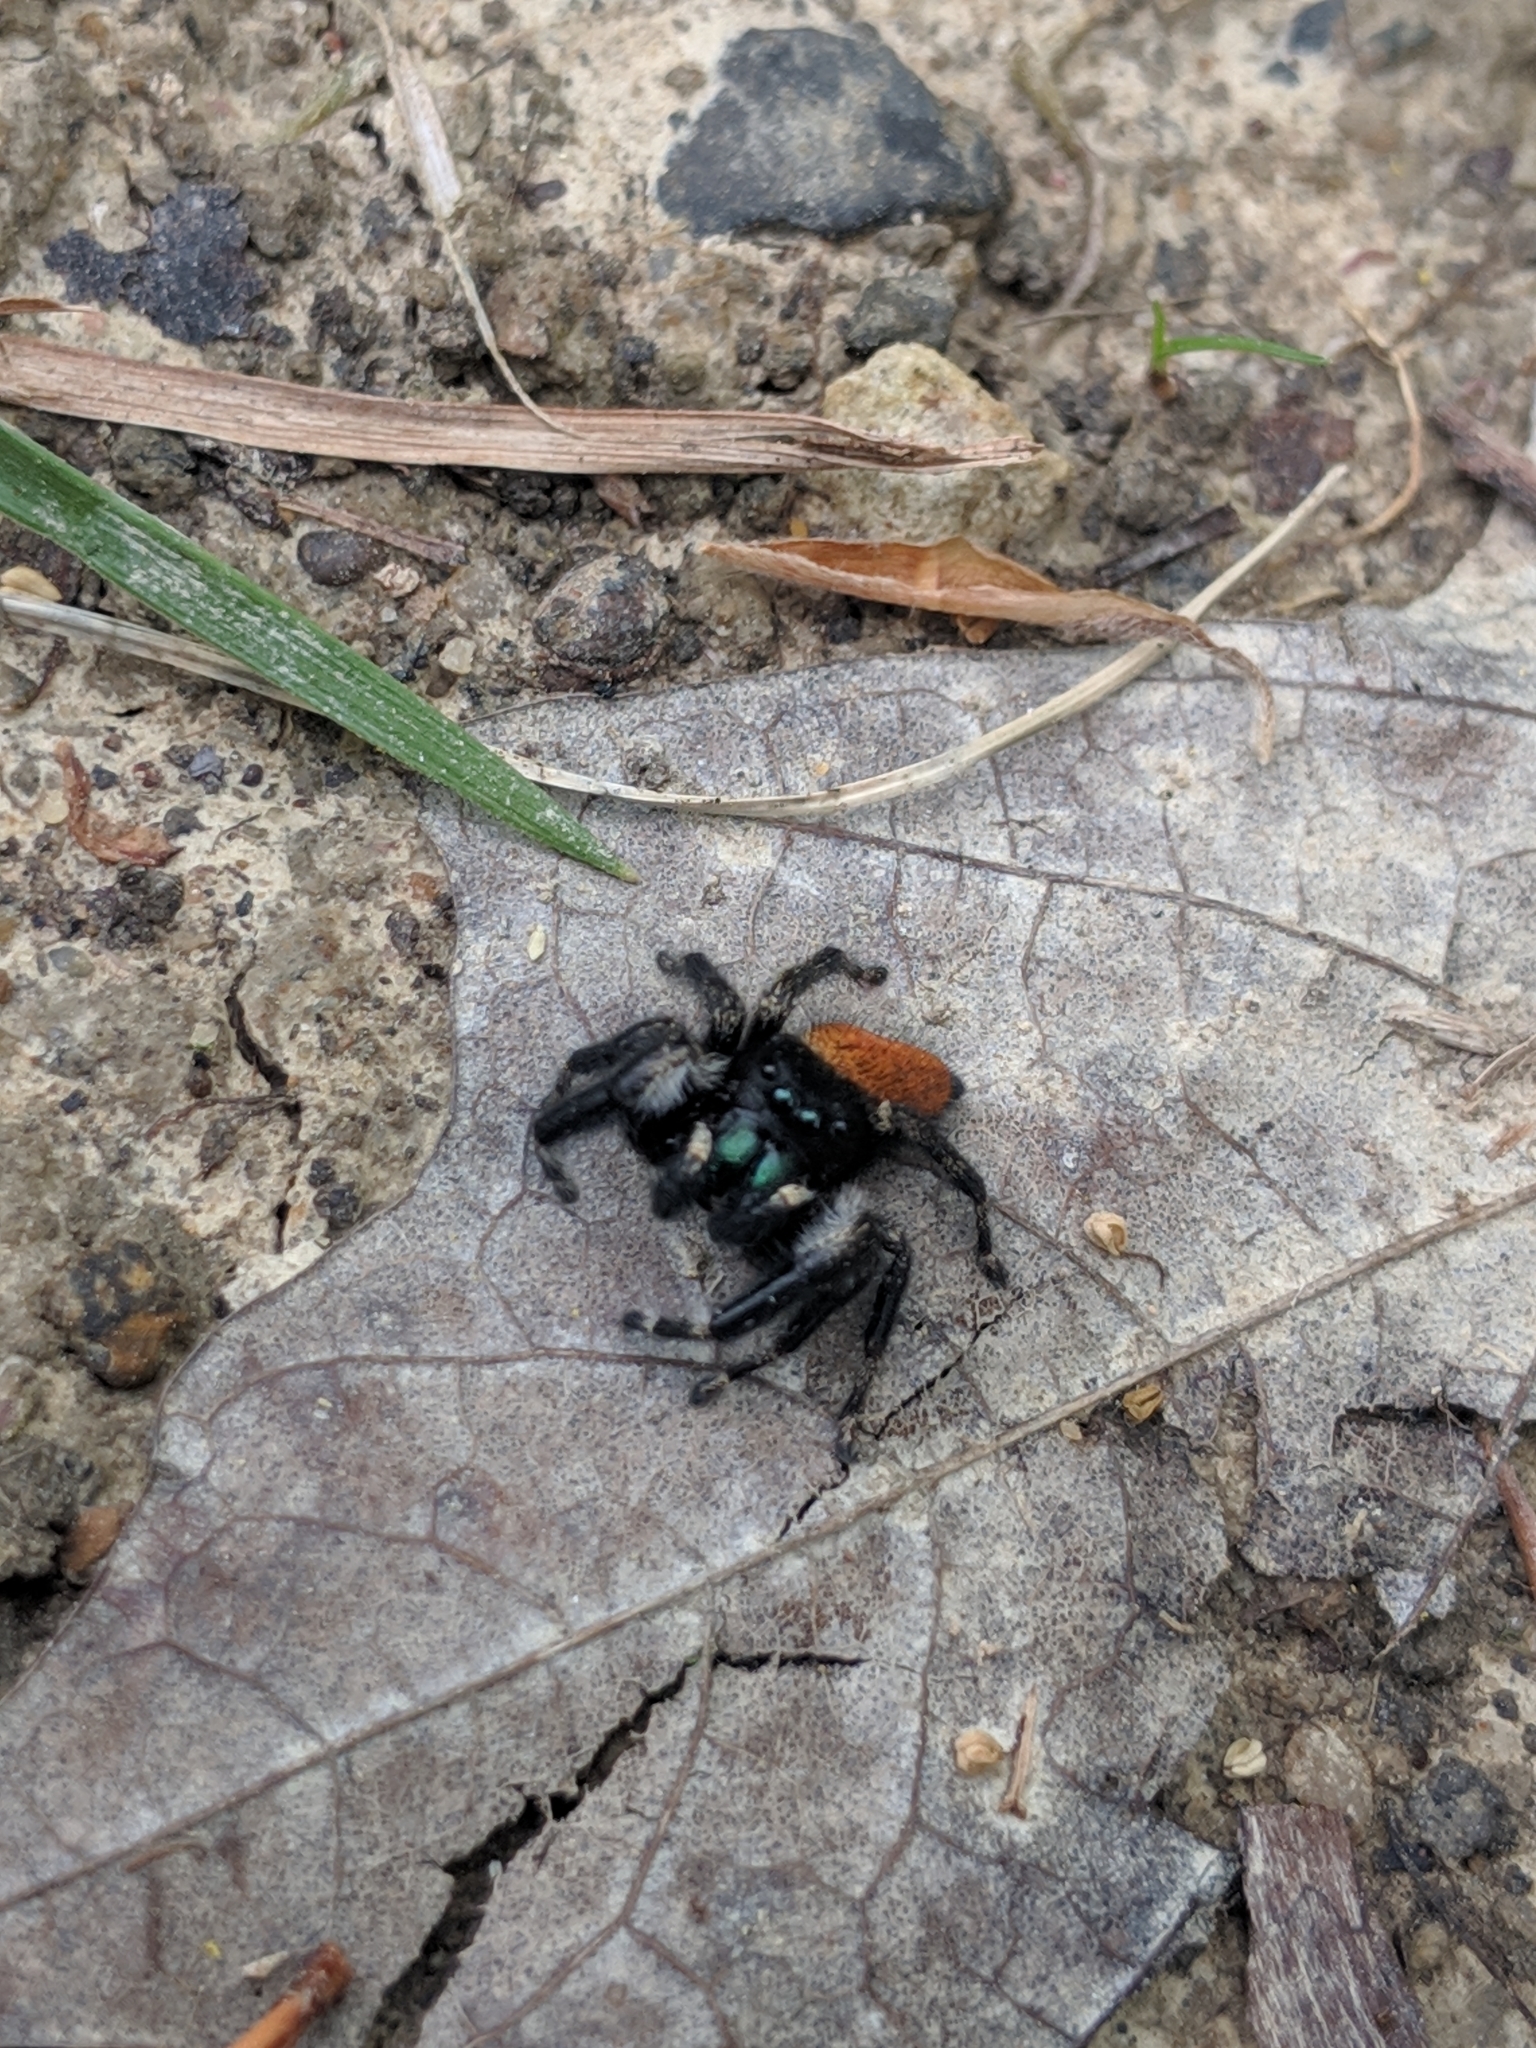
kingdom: Animalia
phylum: Arthropoda
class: Arachnida
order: Araneae
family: Salticidae
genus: Phidippus
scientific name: Phidippus princeps
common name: Grayish jumping spider
